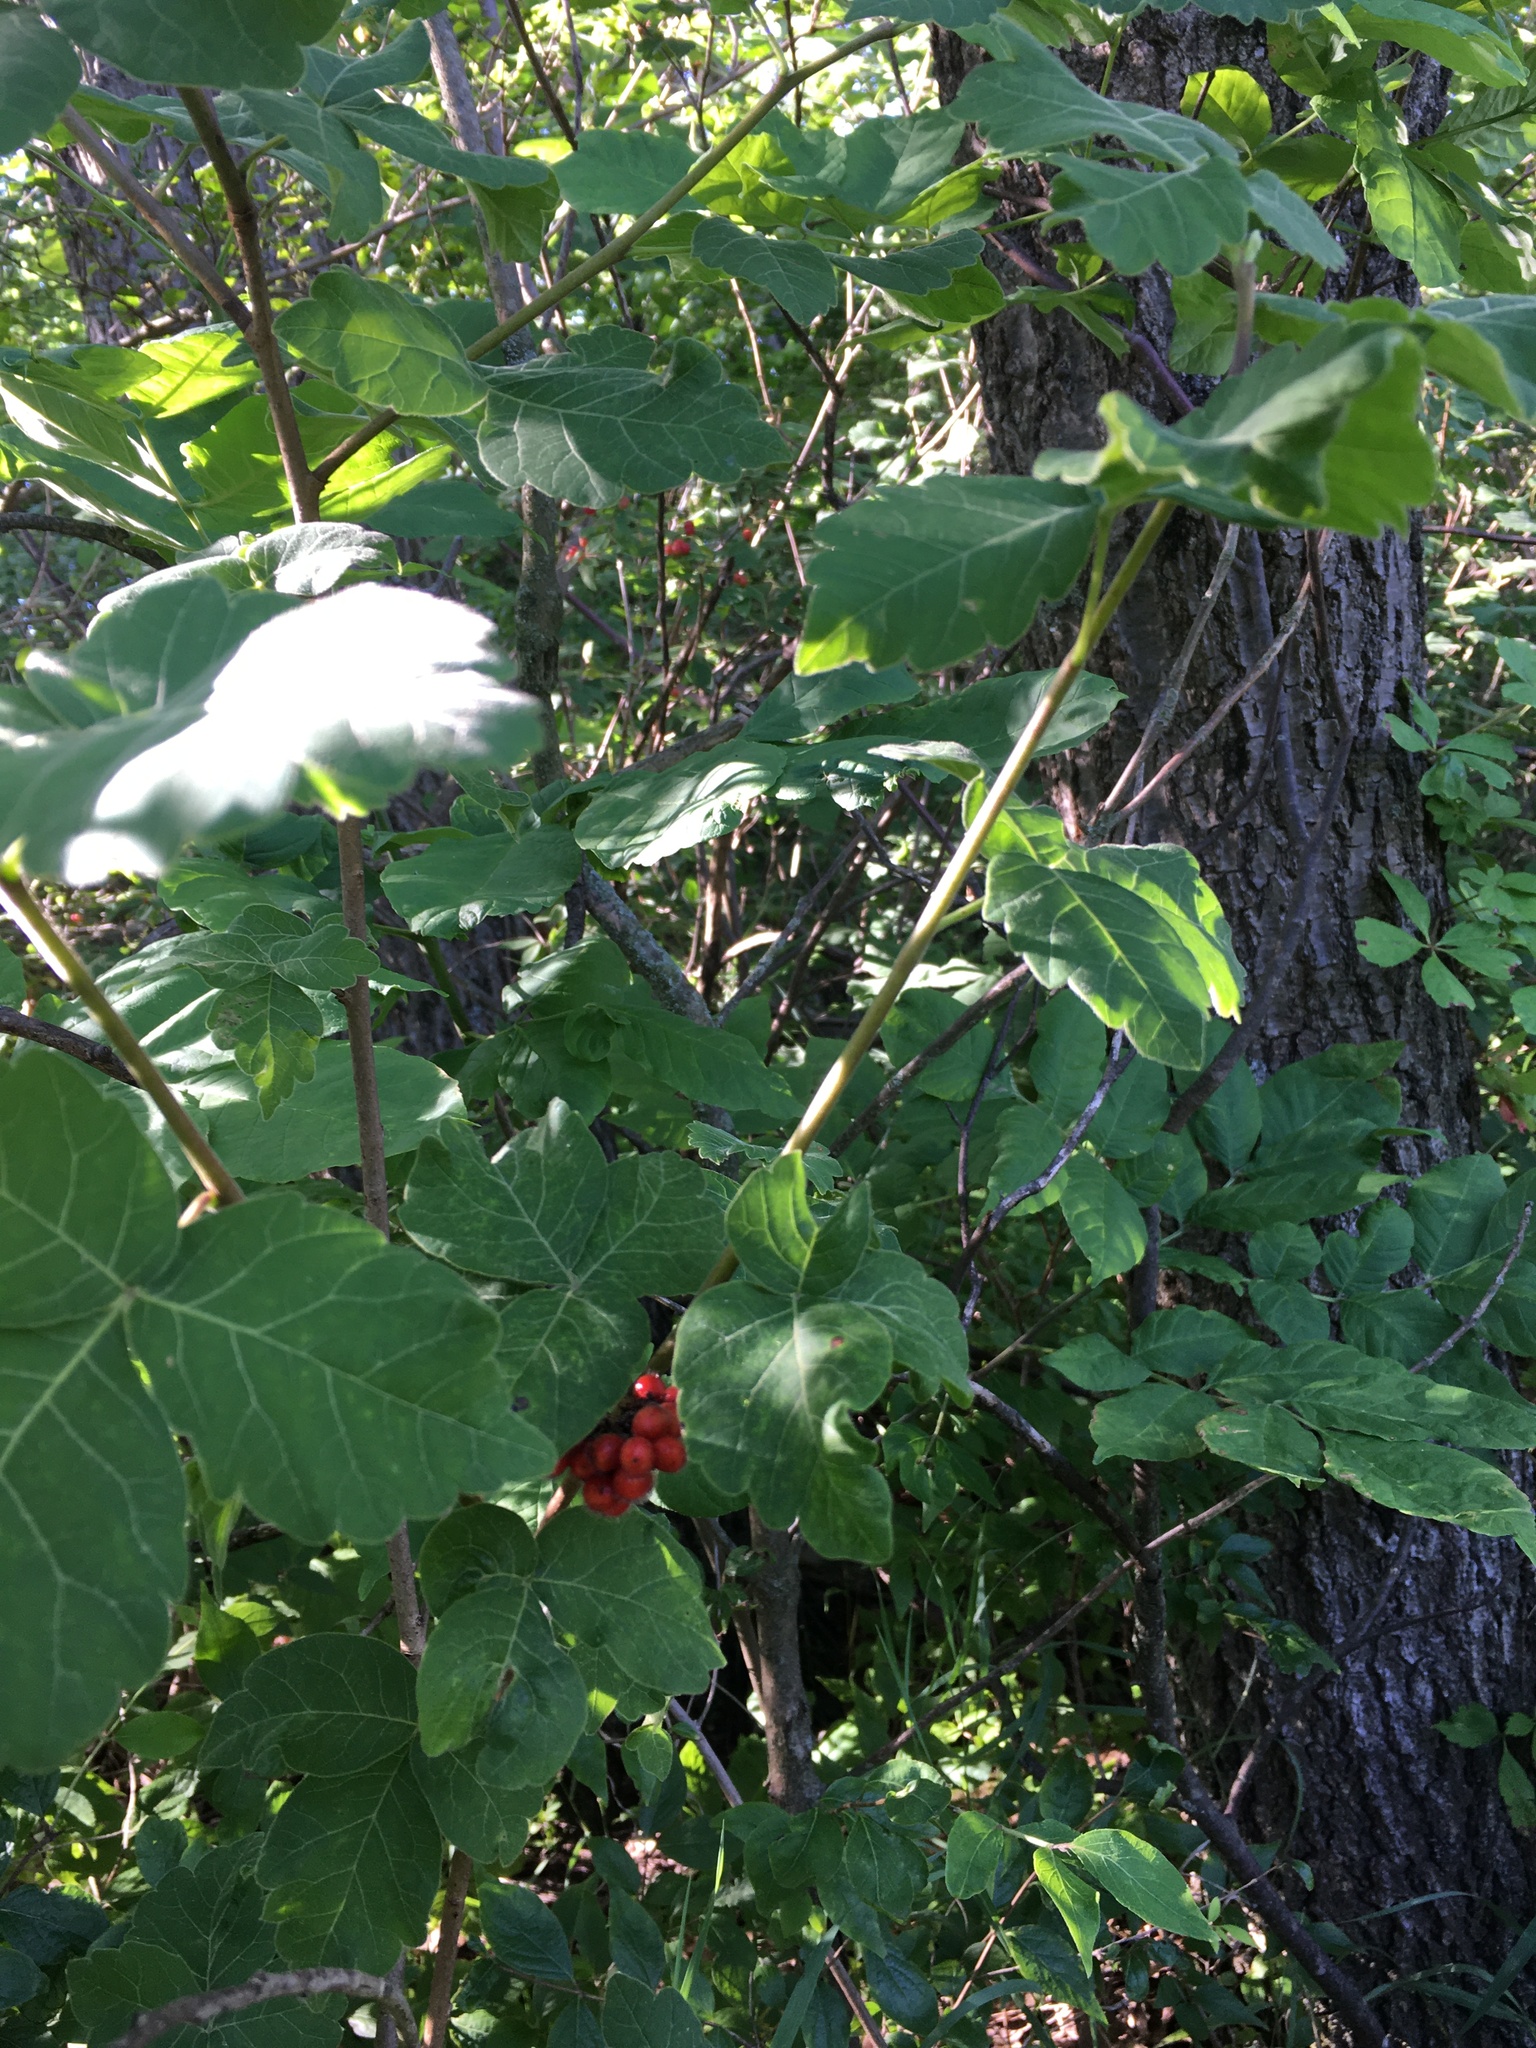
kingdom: Plantae
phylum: Tracheophyta
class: Magnoliopsida
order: Sapindales
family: Anacardiaceae
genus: Rhus
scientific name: Rhus aromatica
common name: Aromatic sumac
